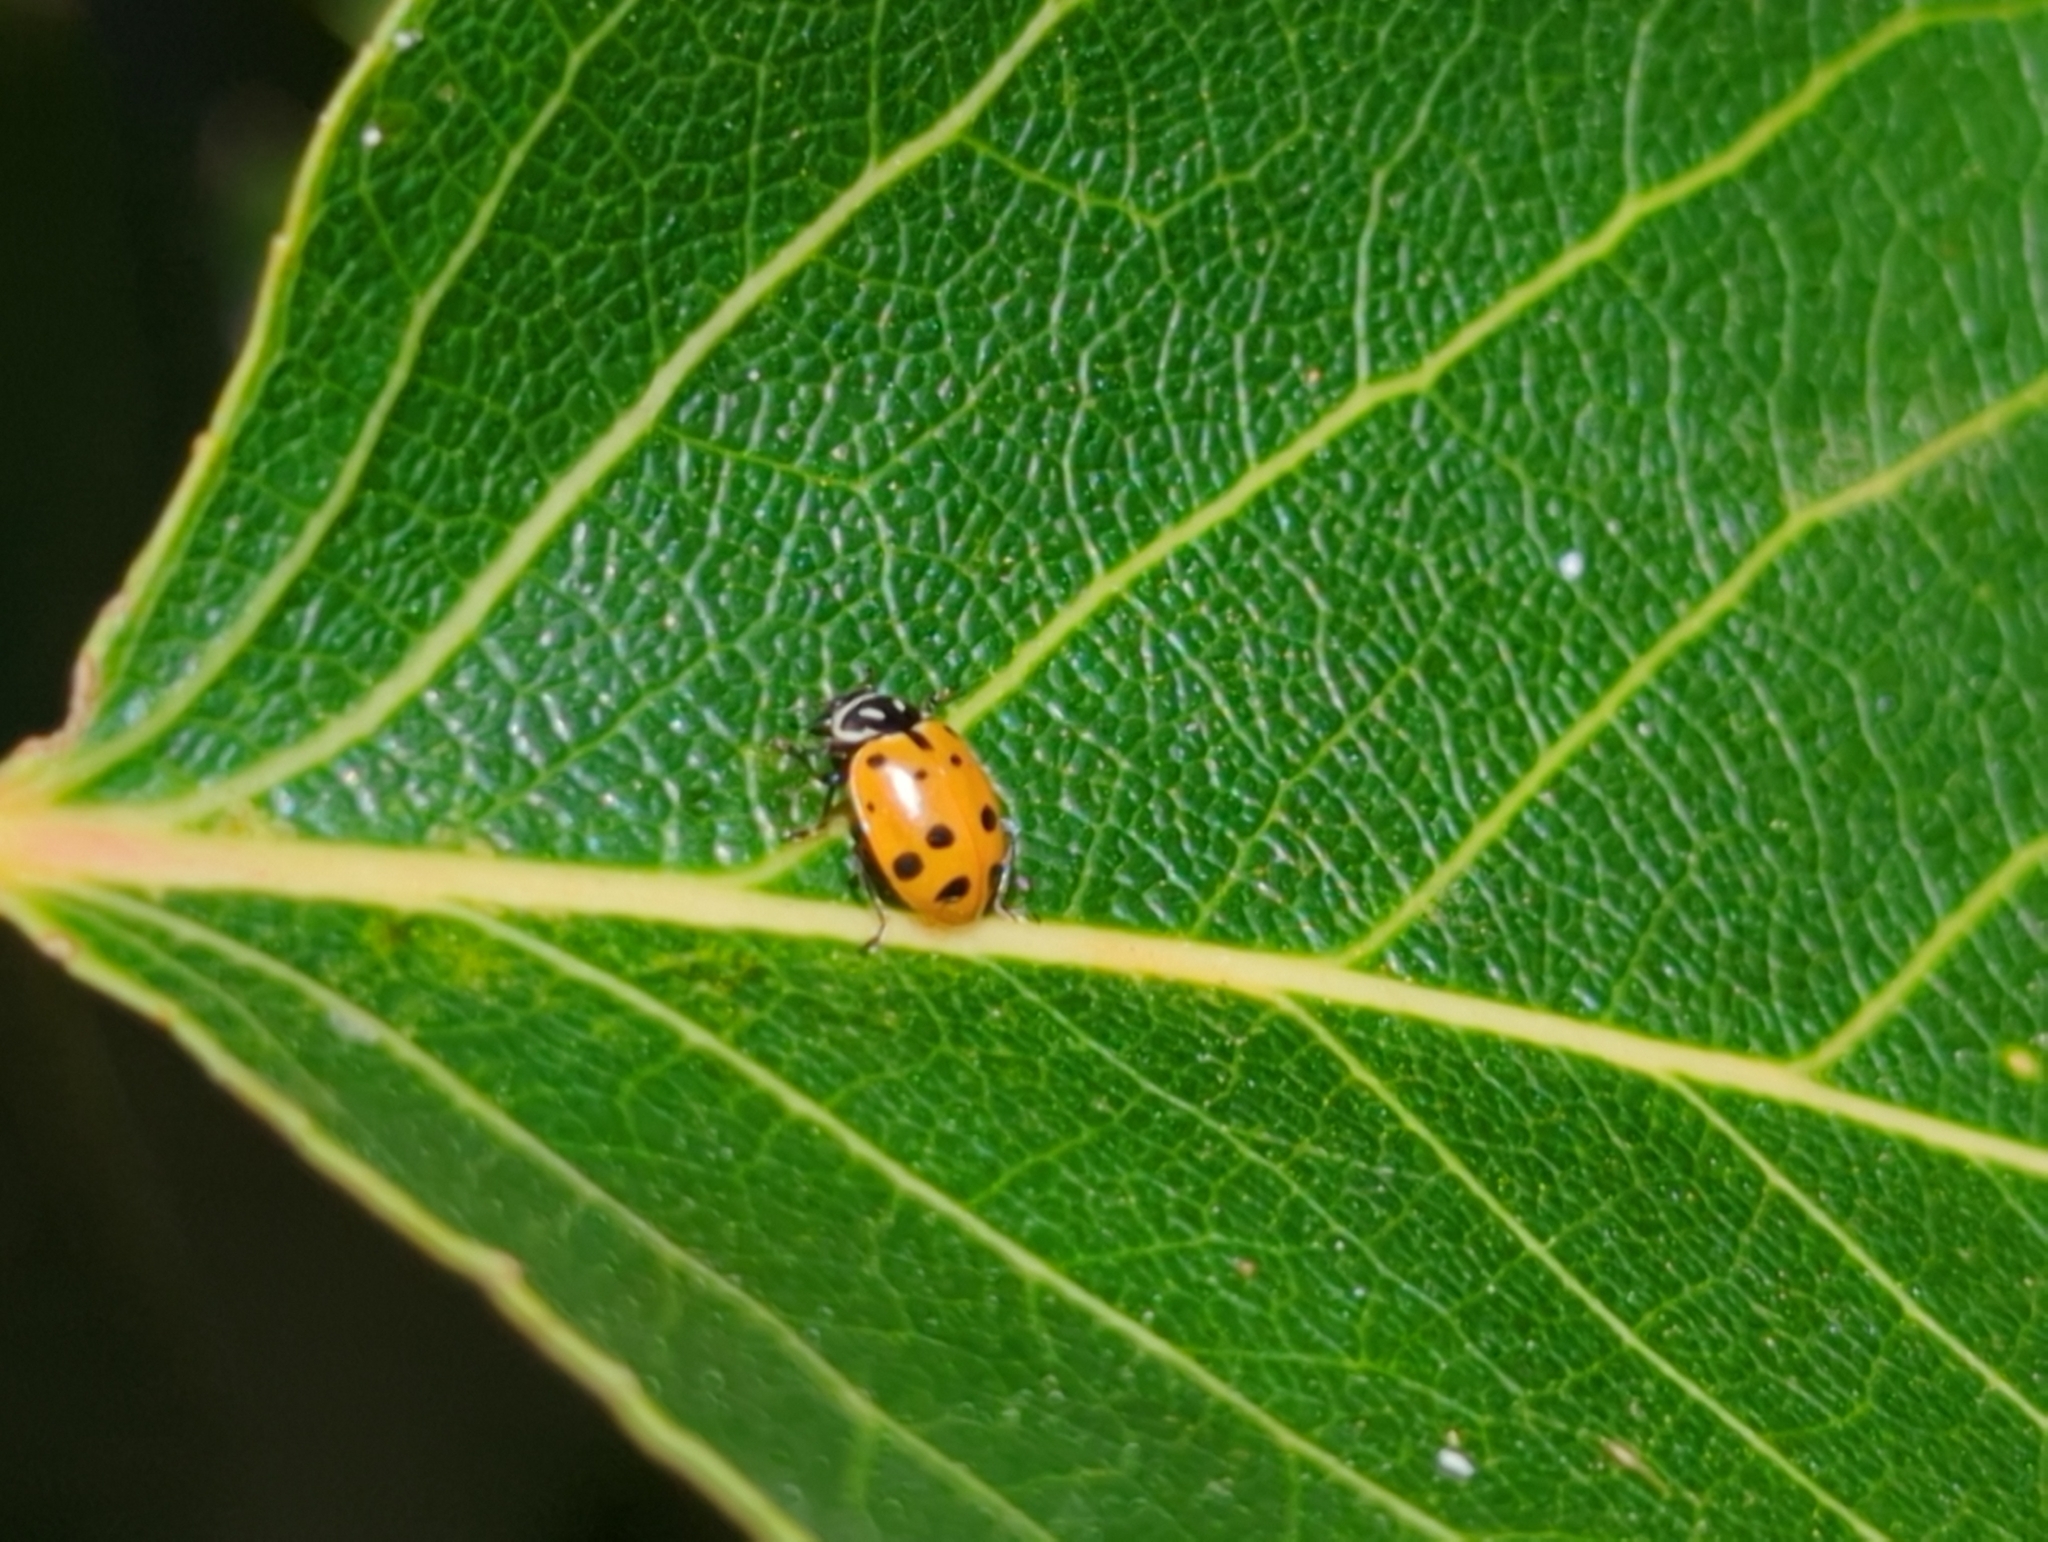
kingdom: Animalia
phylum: Arthropoda
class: Insecta
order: Coleoptera
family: Coccinellidae
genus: Hippodamia
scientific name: Hippodamia convergens
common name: Convergent lady beetle
